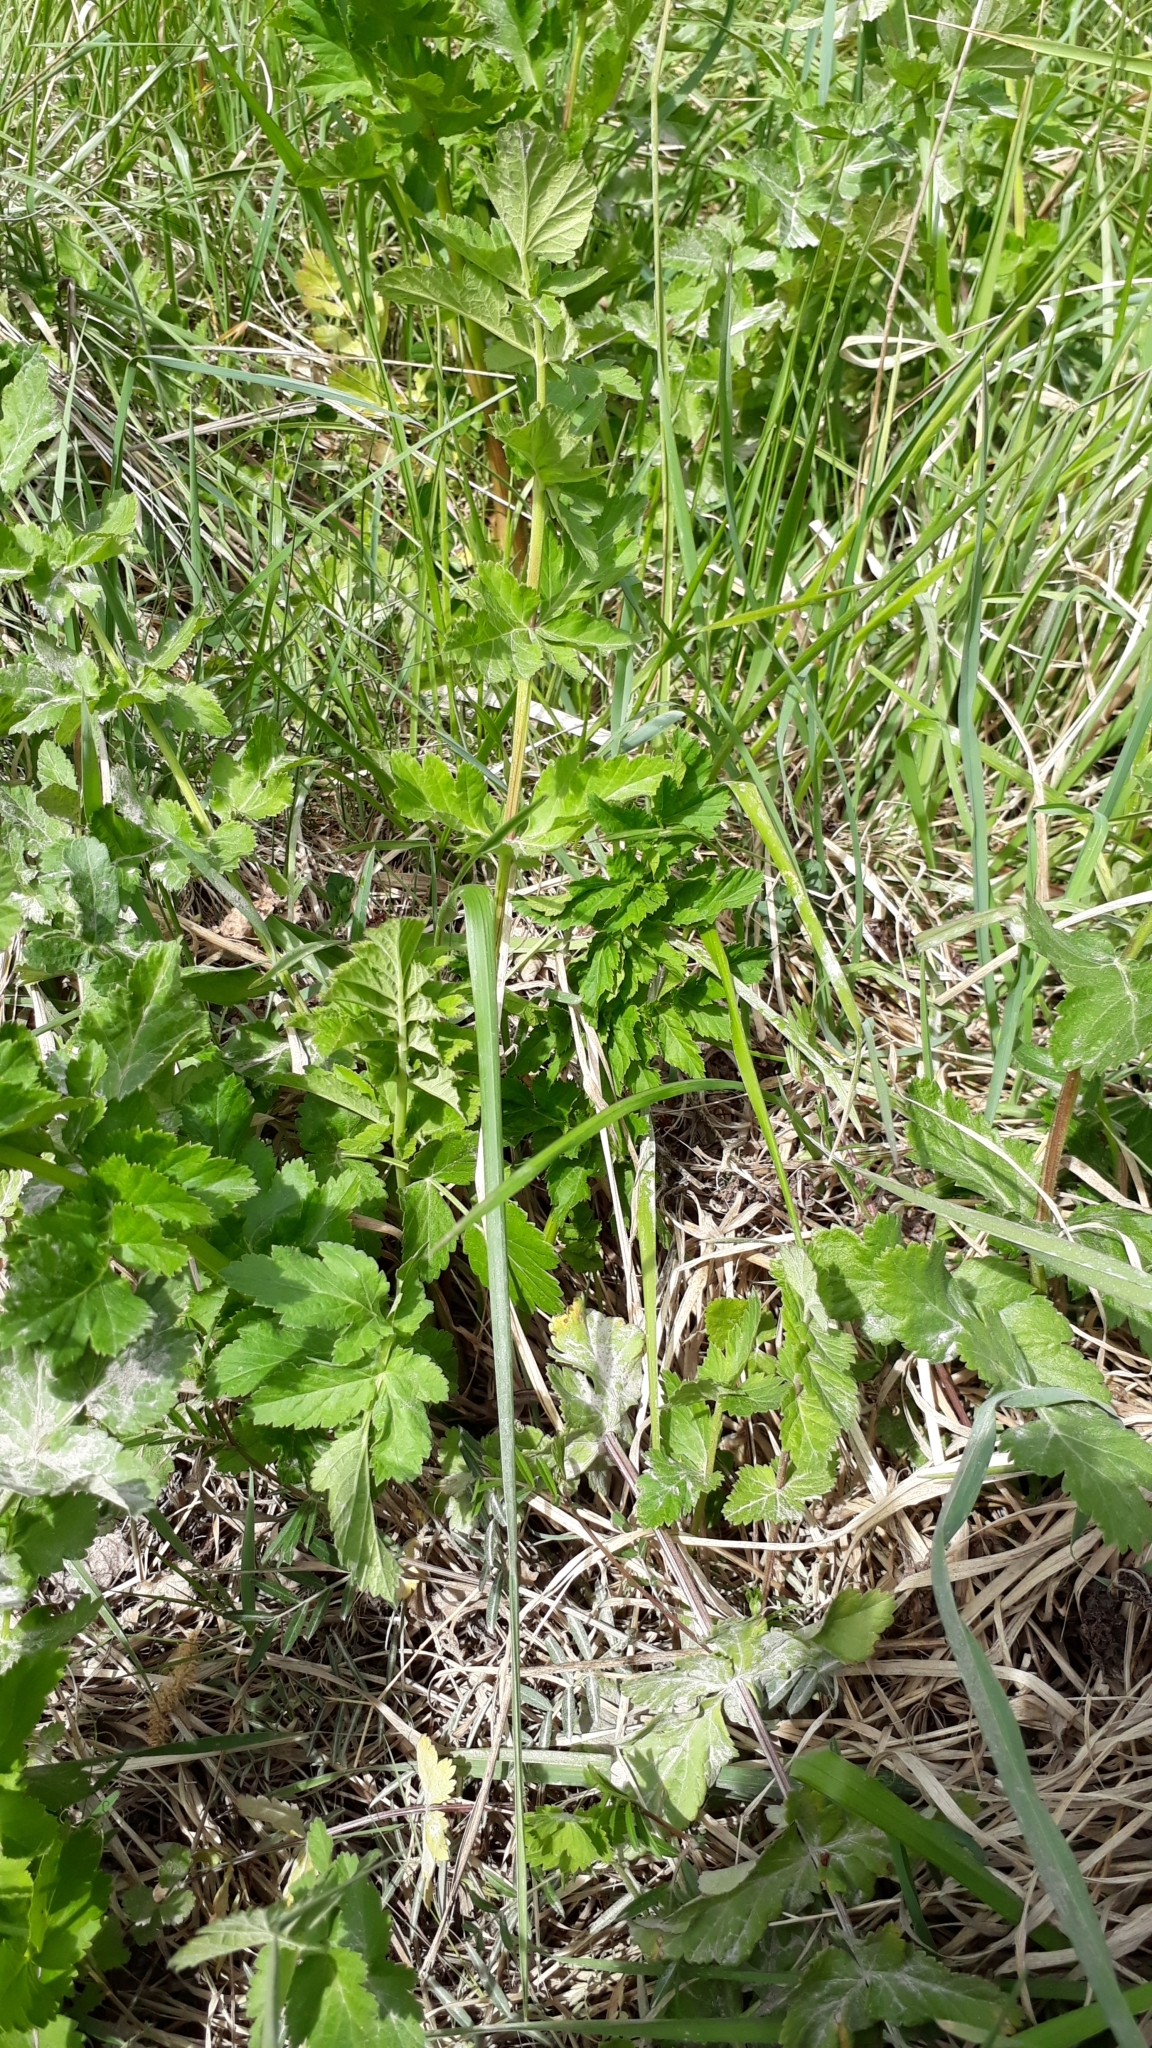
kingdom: Plantae
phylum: Tracheophyta
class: Magnoliopsida
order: Apiales
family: Apiaceae
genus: Pastinaca
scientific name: Pastinaca sativa
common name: Wild parsnip
